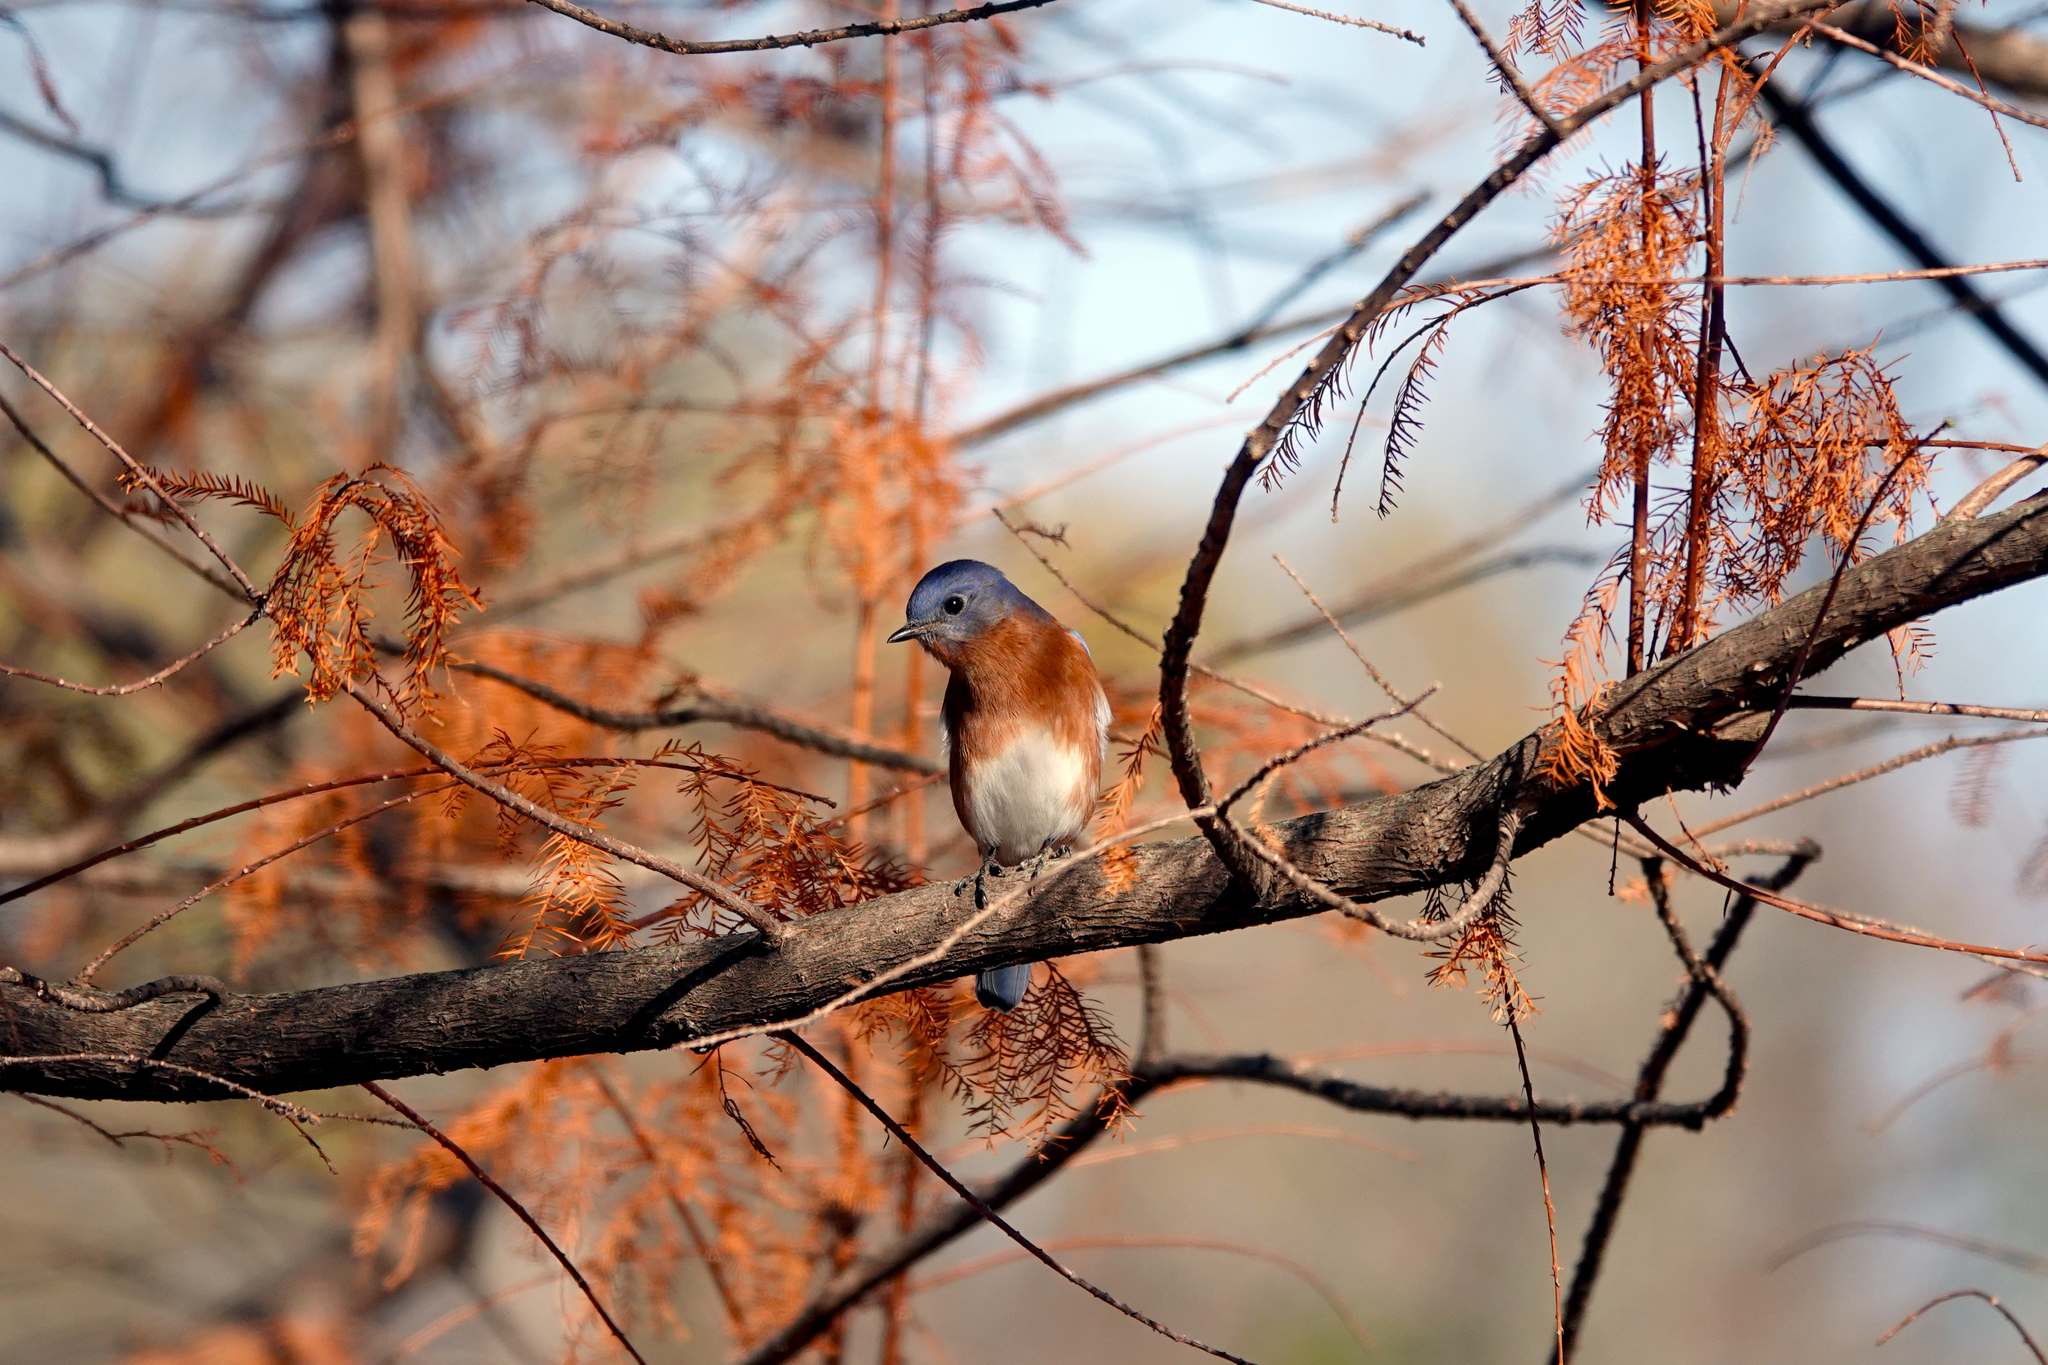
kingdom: Animalia
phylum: Chordata
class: Aves
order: Passeriformes
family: Turdidae
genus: Sialia
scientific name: Sialia sialis
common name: Eastern bluebird
